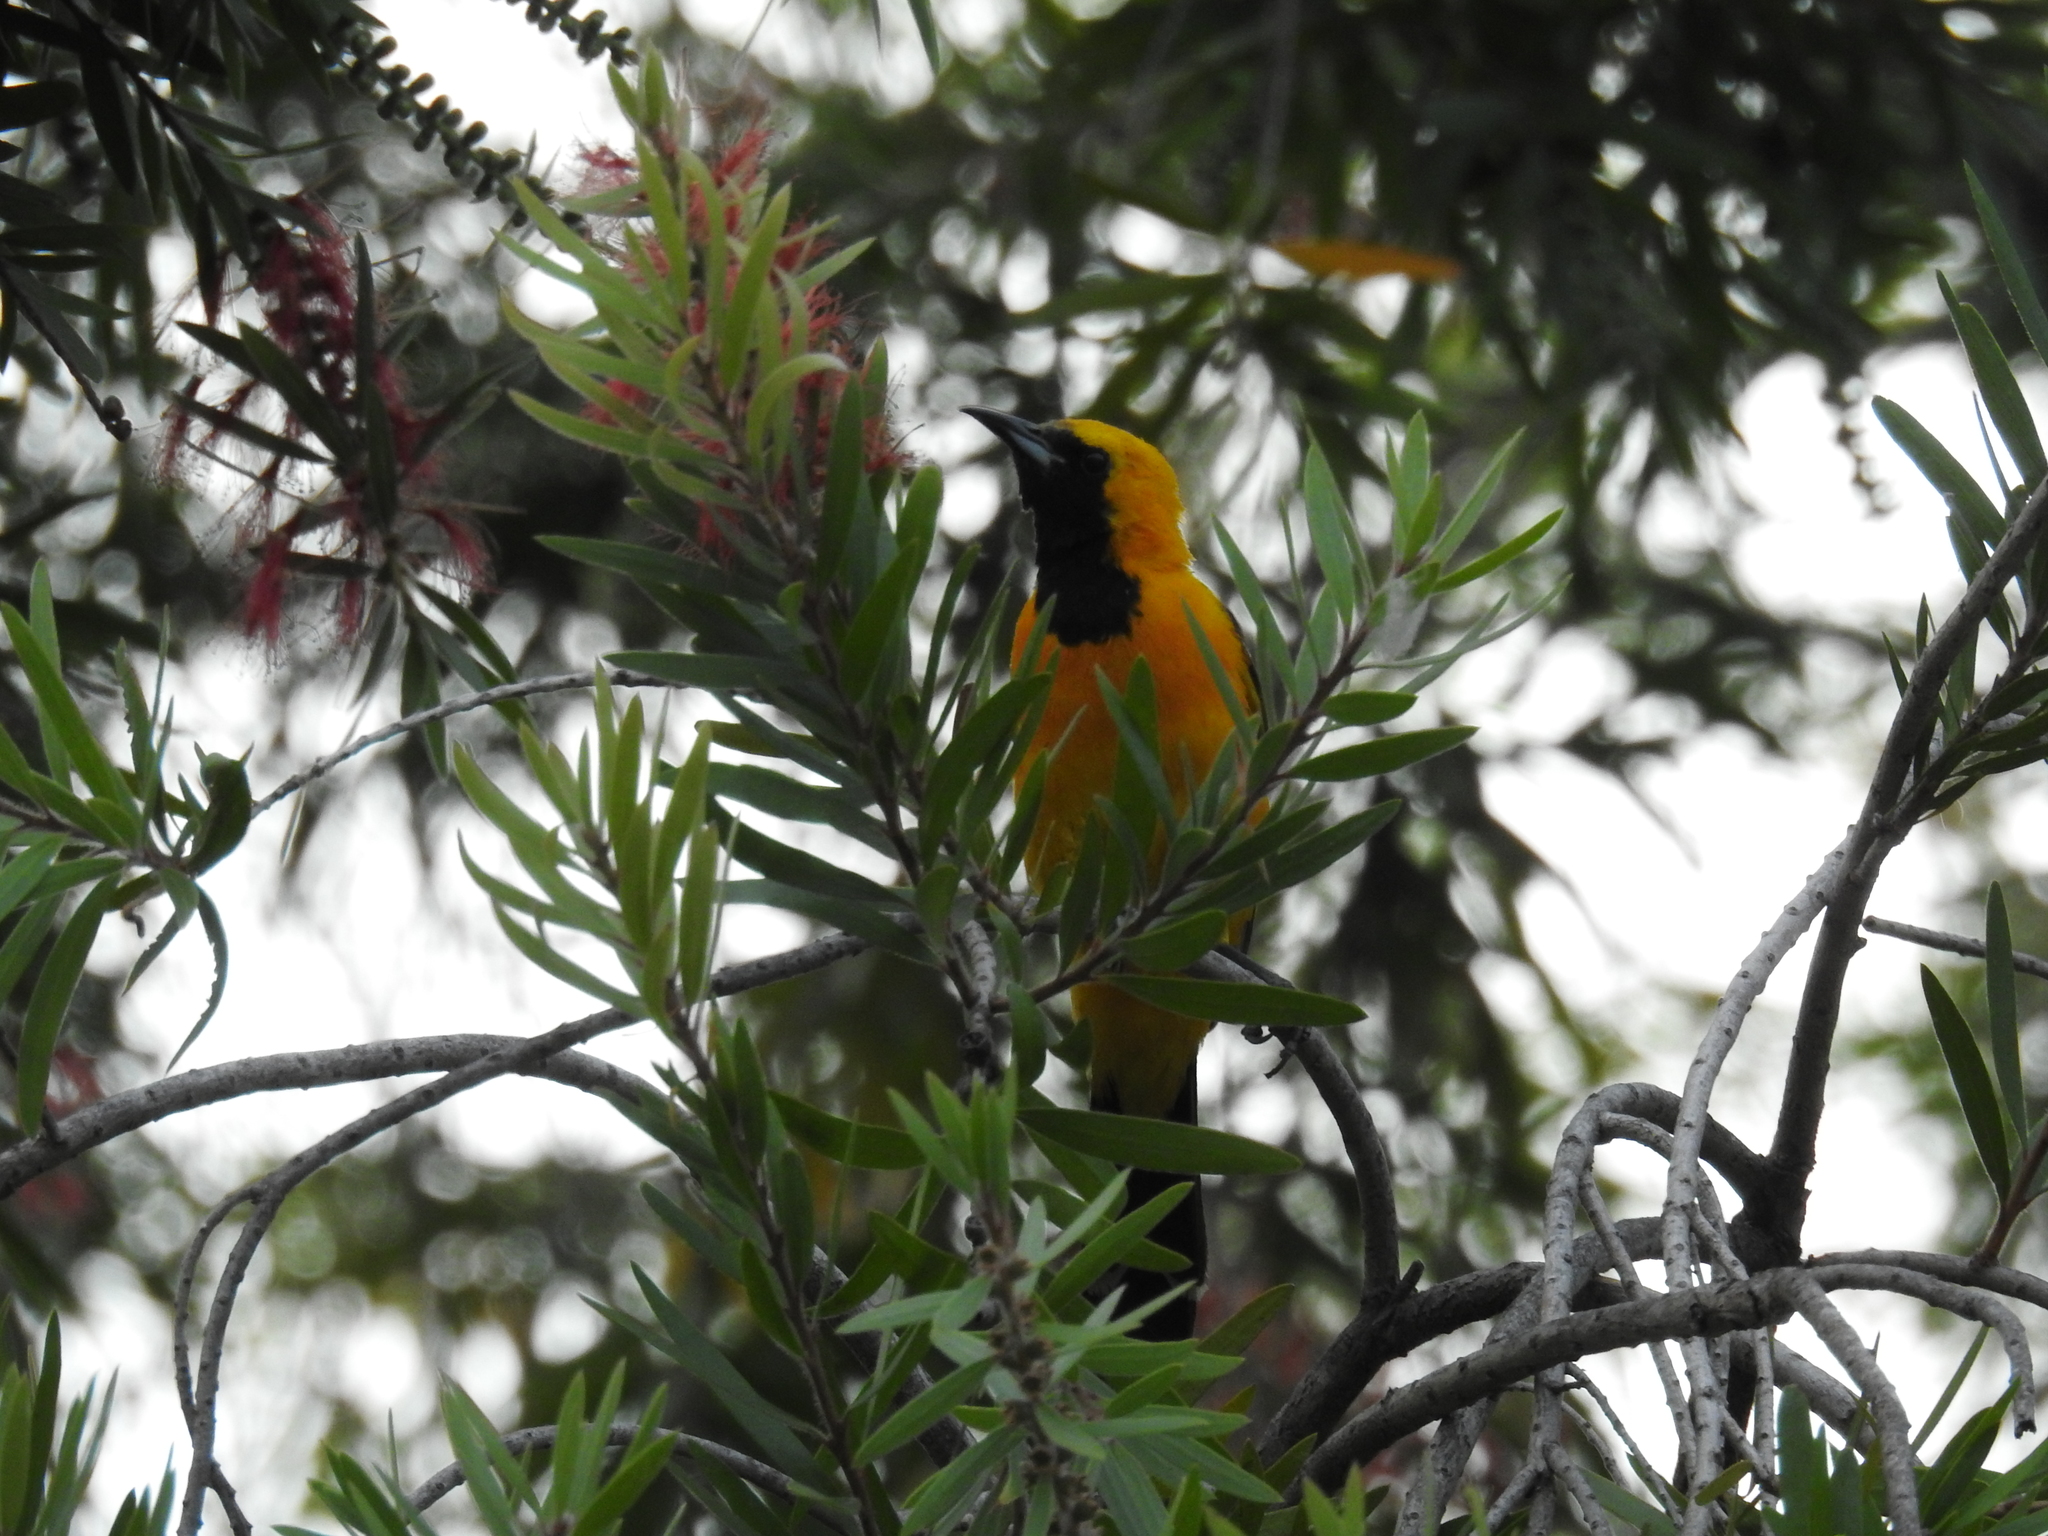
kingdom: Animalia
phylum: Chordata
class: Aves
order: Passeriformes
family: Icteridae
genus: Icterus
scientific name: Icterus cucullatus
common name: Hooded oriole
